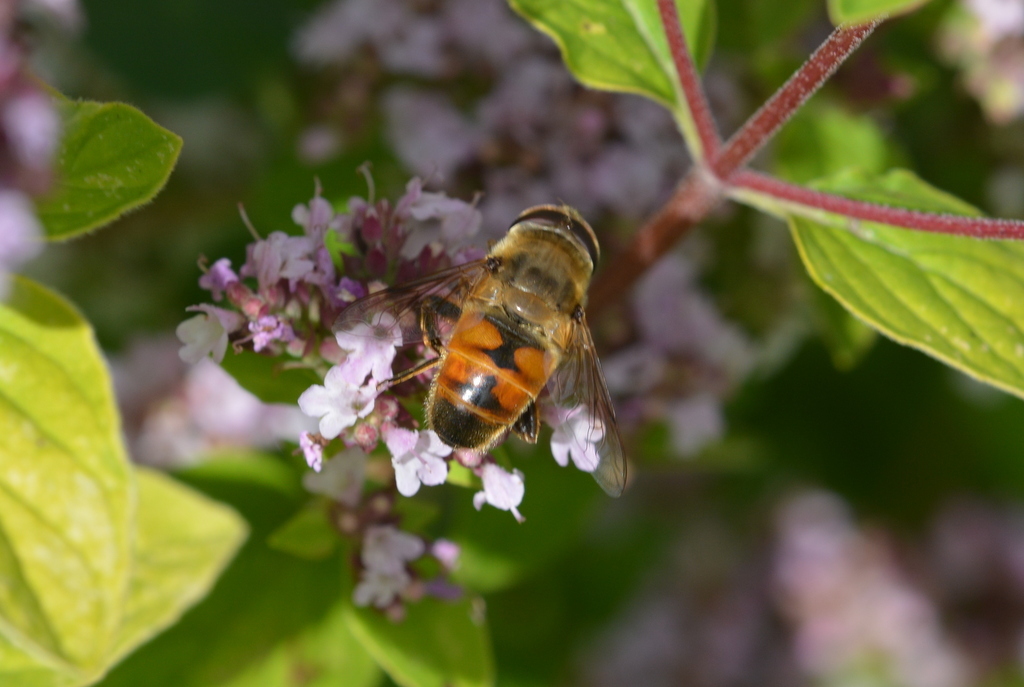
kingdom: Animalia
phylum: Arthropoda
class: Insecta
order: Diptera
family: Syrphidae
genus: Eristalis
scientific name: Eristalis tenax
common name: Drone fly
